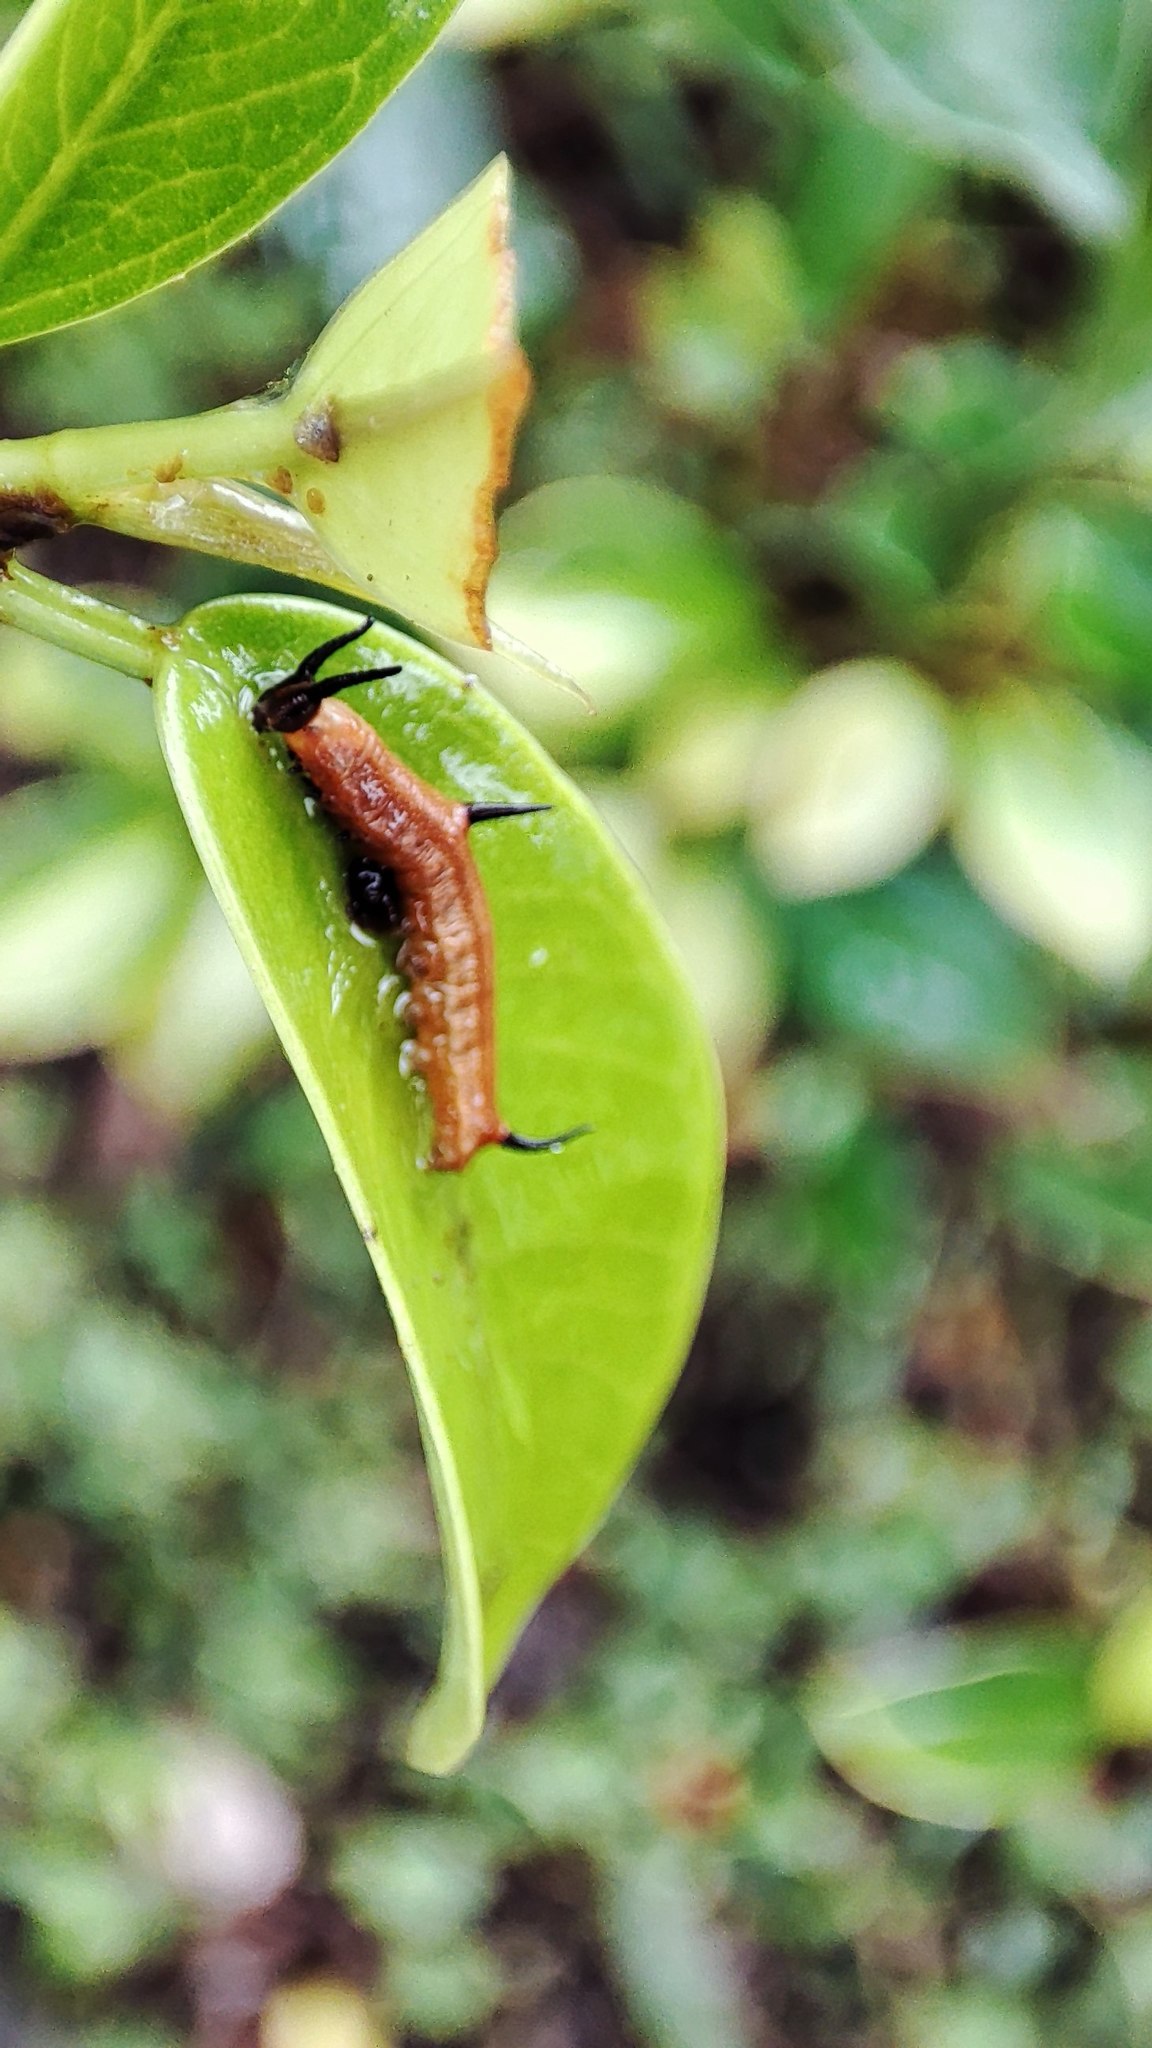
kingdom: Animalia
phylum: Arthropoda
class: Insecta
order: Lepidoptera
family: Nymphalidae
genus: Cyrestis
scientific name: Cyrestis thyodamas
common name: Common mapwing
